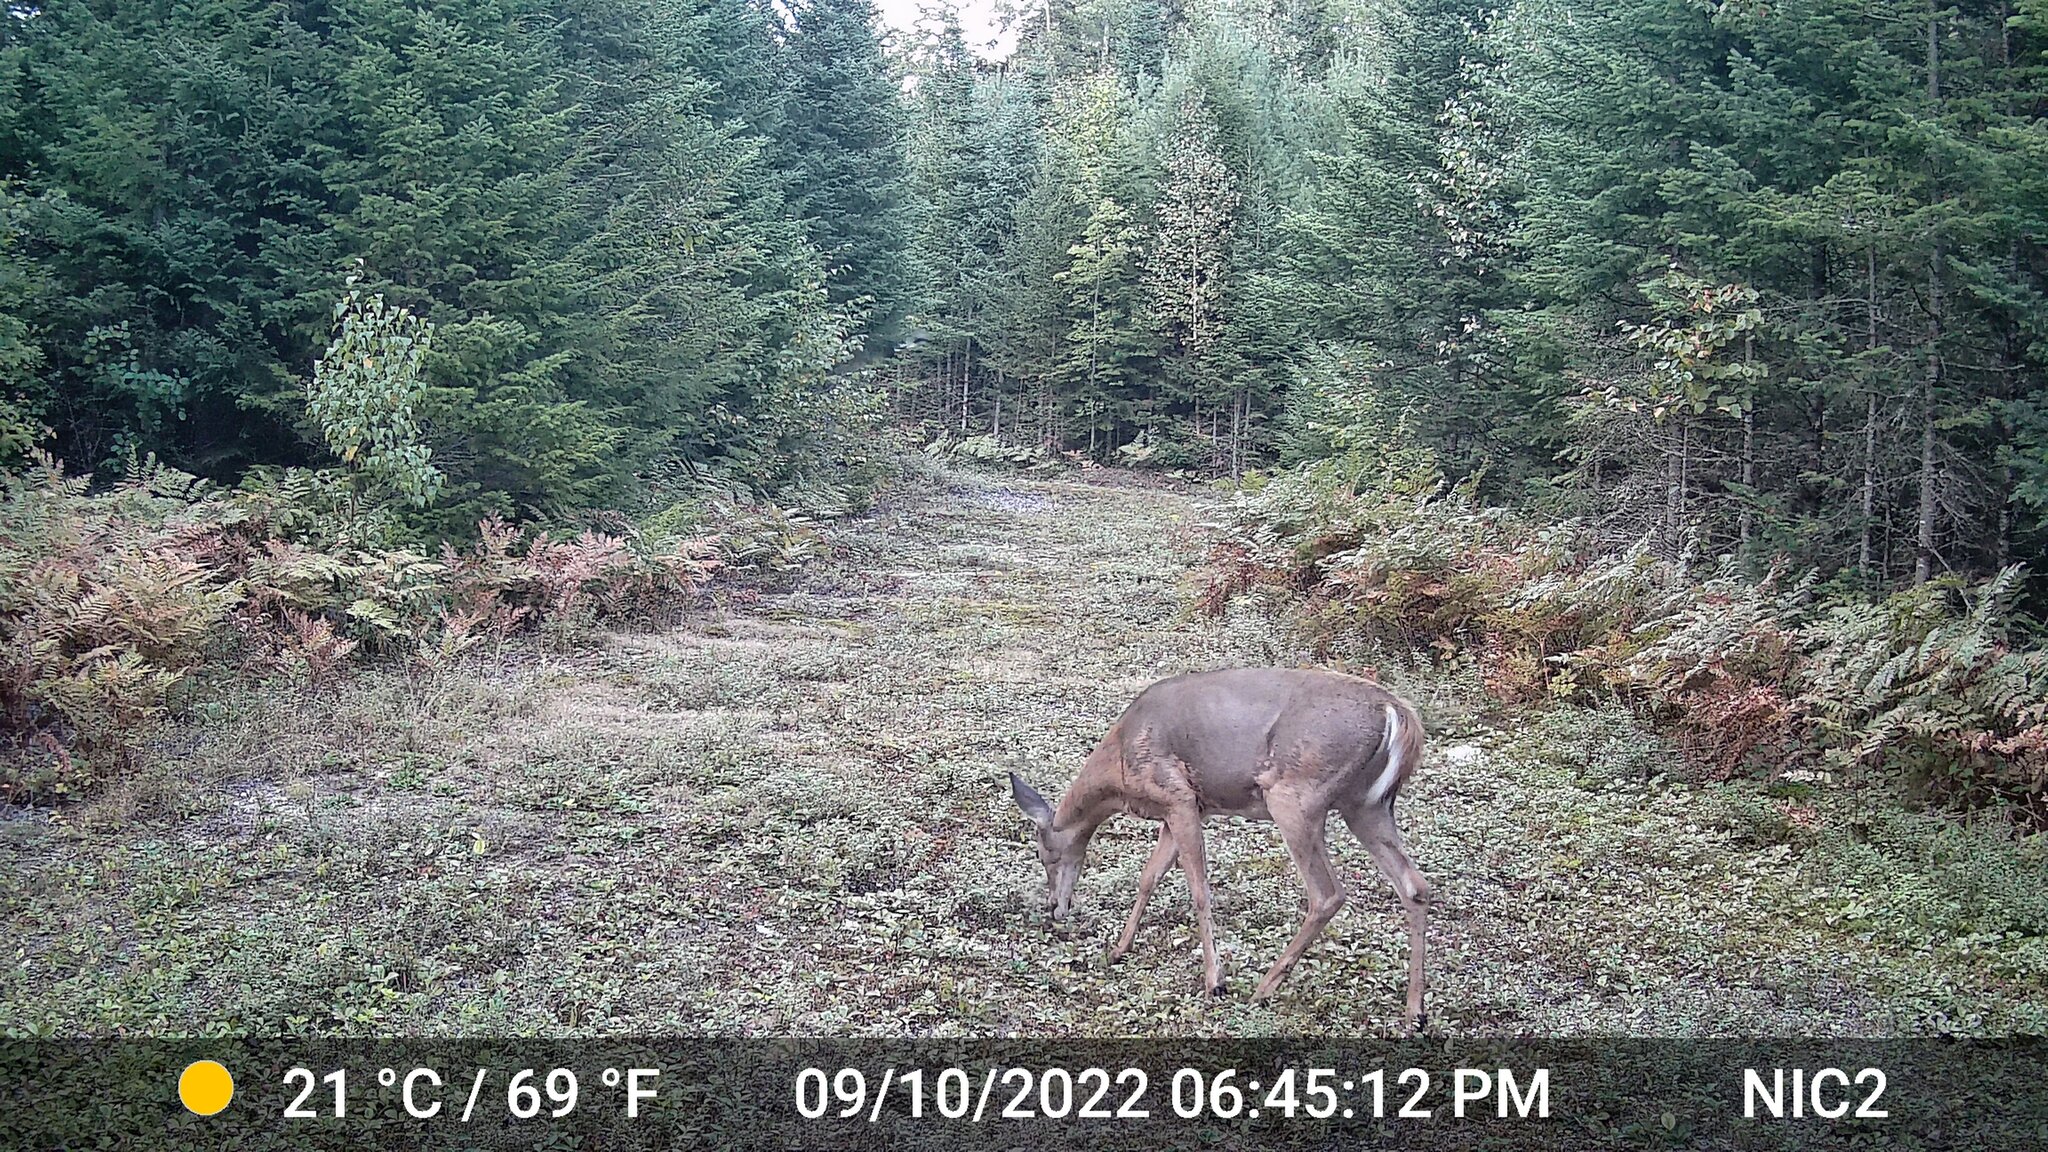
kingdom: Animalia
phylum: Chordata
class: Mammalia
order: Artiodactyla
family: Cervidae
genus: Odocoileus
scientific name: Odocoileus virginianus
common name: White-tailed deer
